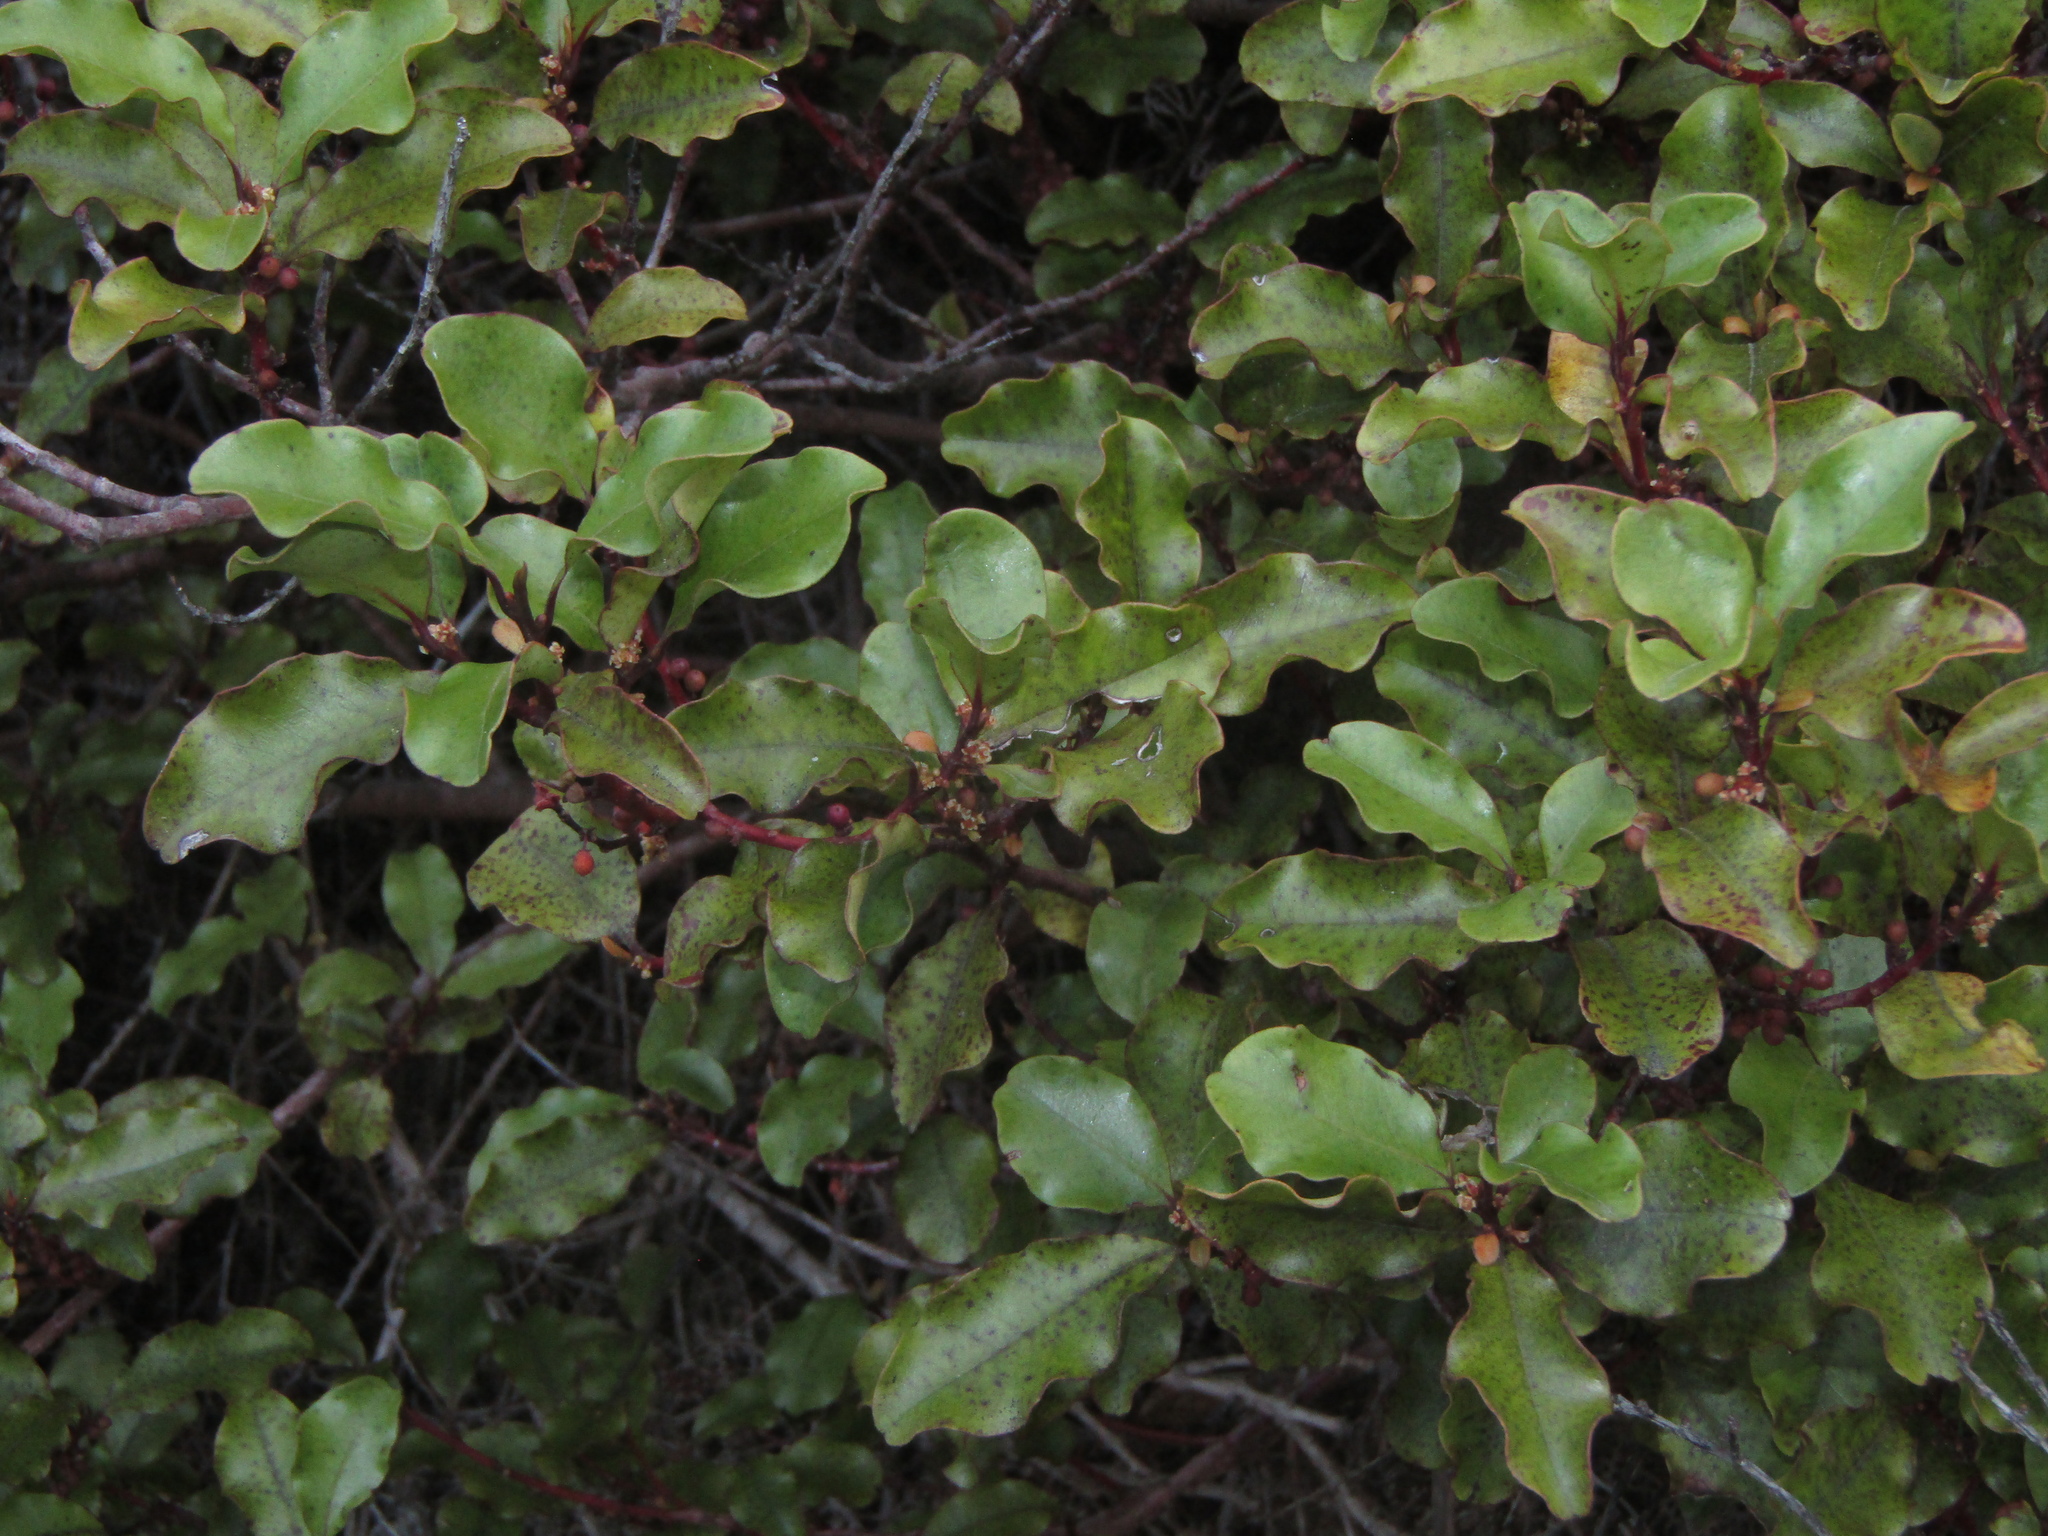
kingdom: Plantae
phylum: Tracheophyta
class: Magnoliopsida
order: Ericales
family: Primulaceae
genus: Myrsine
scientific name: Myrsine australis
